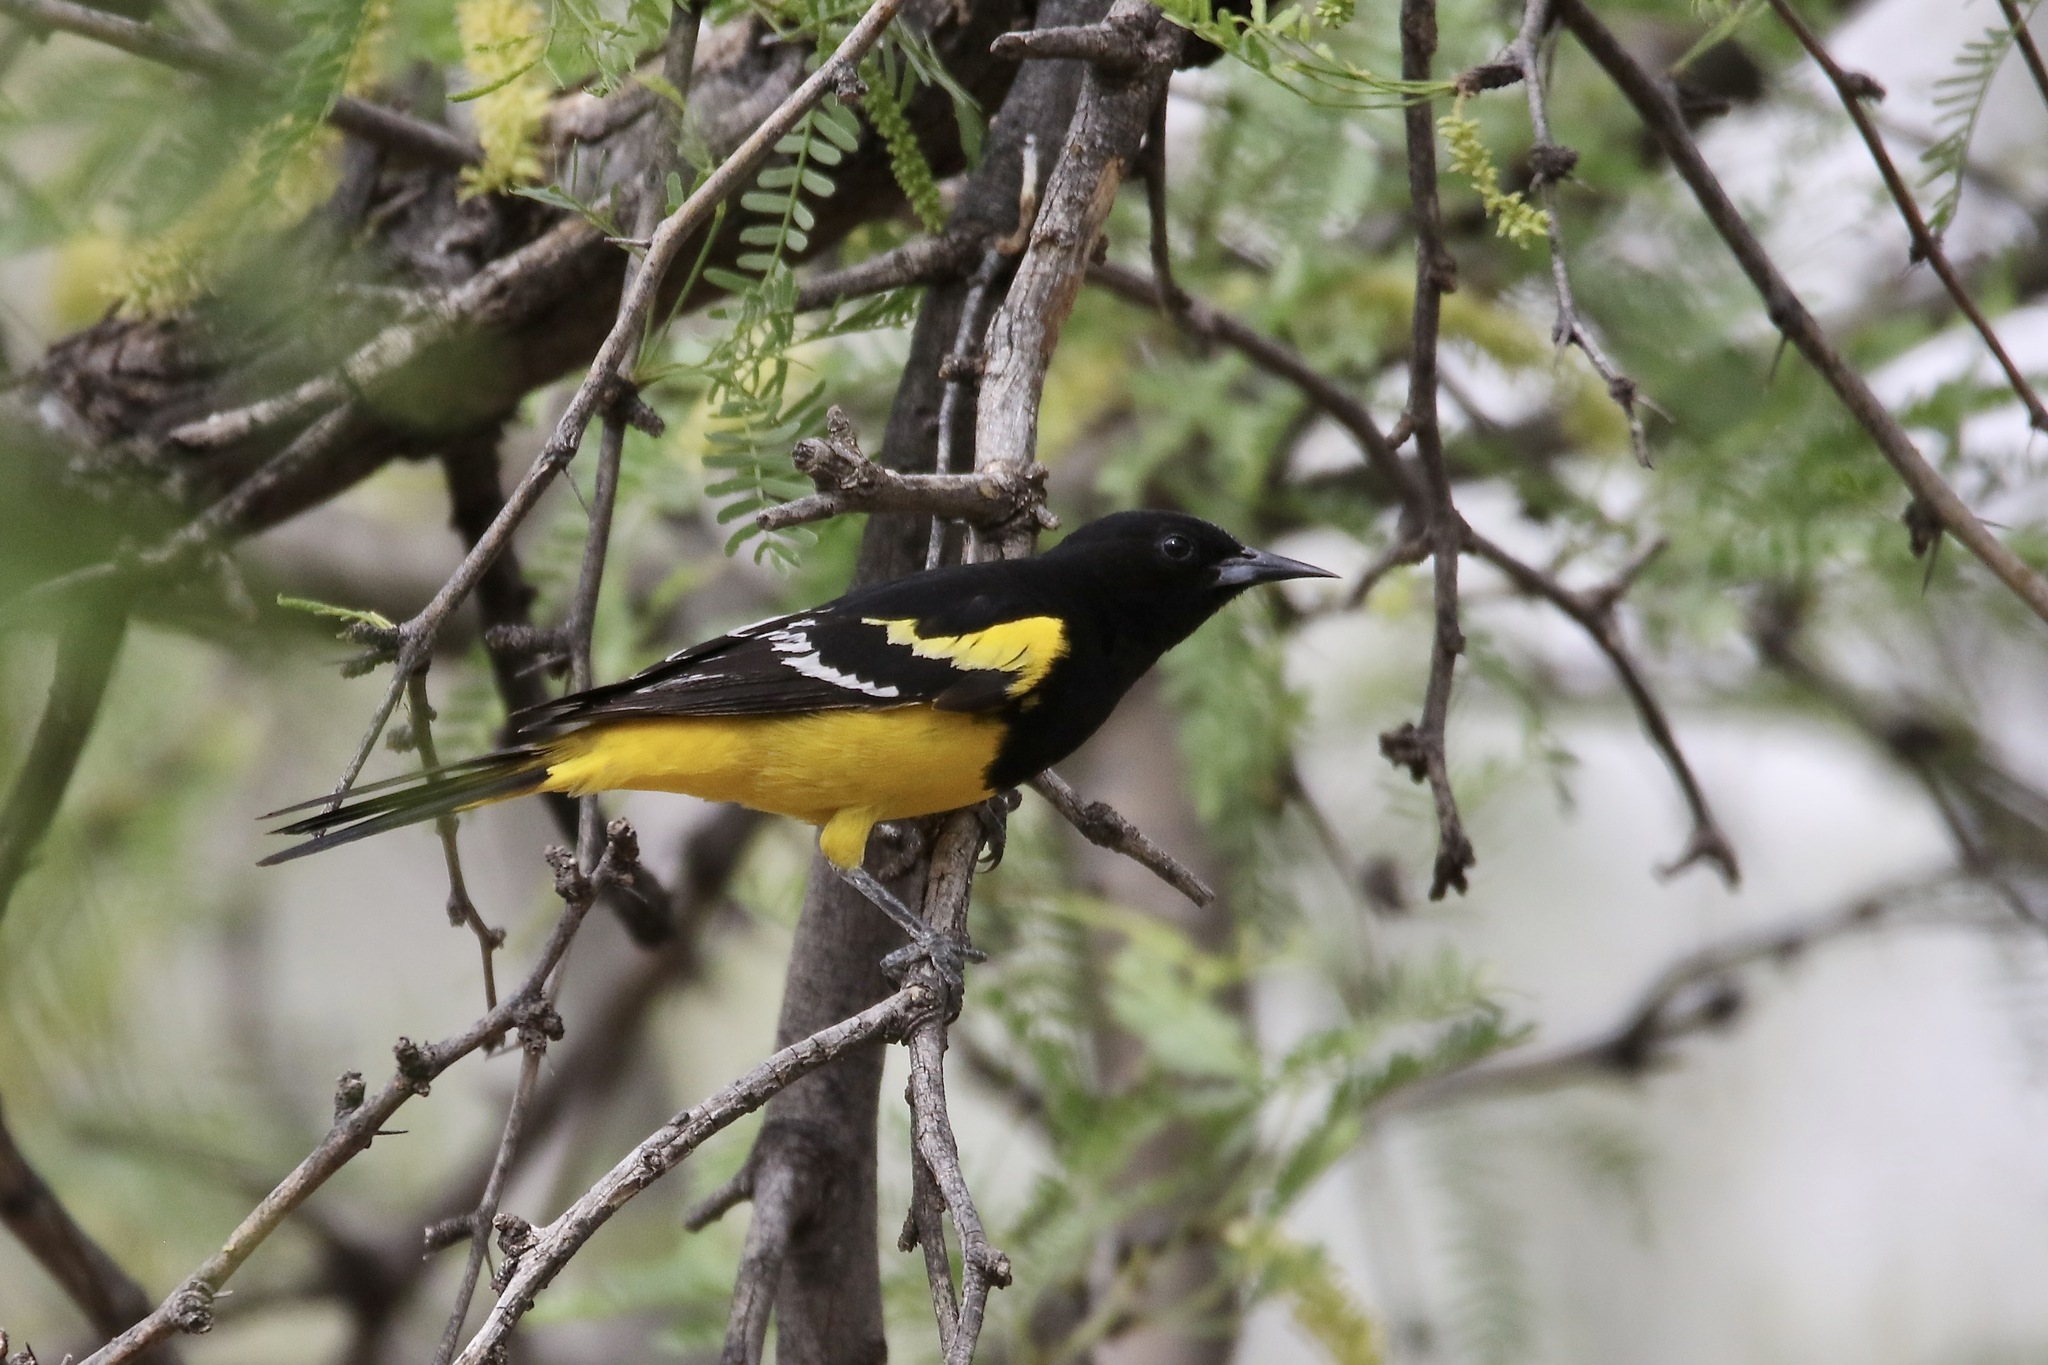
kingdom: Animalia
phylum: Chordata
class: Aves
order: Passeriformes
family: Icteridae
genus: Icterus
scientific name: Icterus parisorum
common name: Scott's oriole
